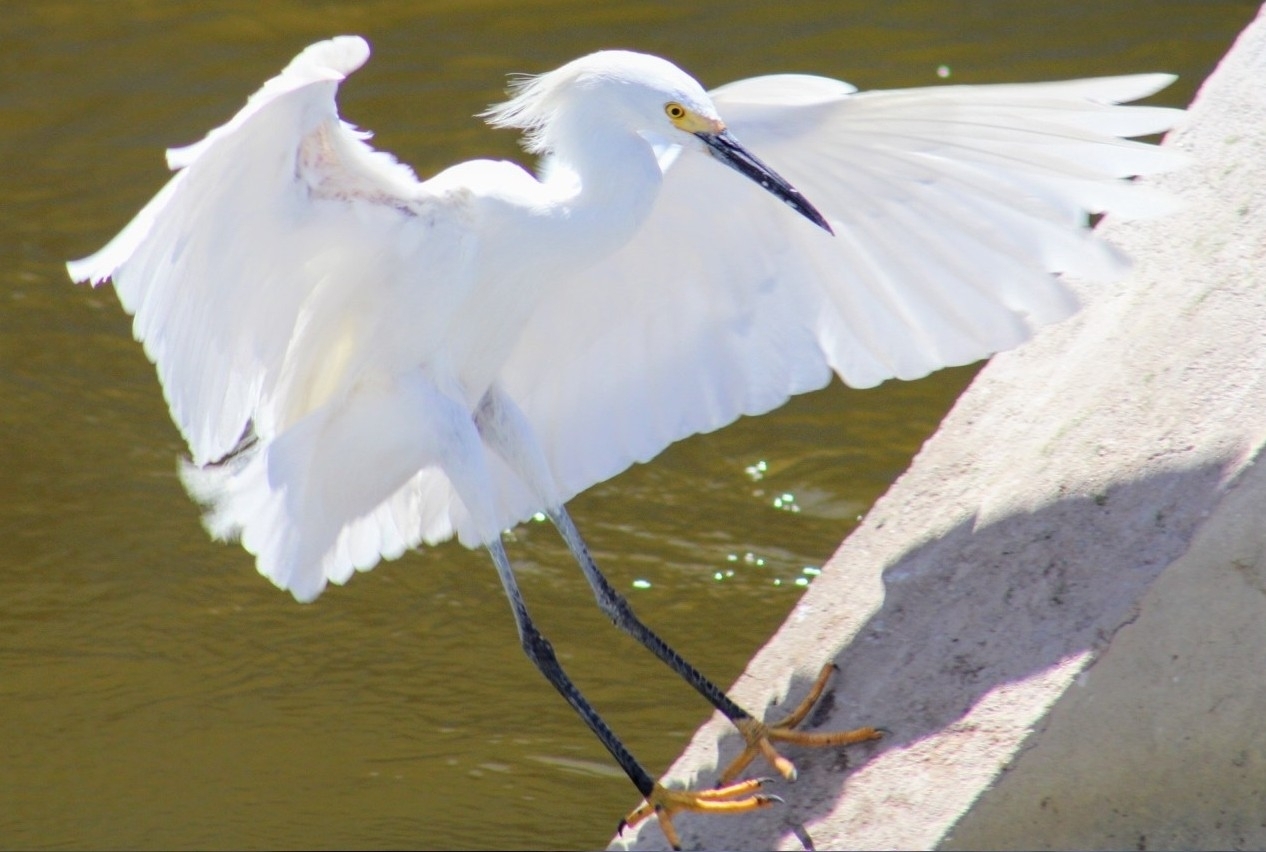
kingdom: Animalia
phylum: Chordata
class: Aves
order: Pelecaniformes
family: Ardeidae
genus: Egretta
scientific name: Egretta thula
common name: Snowy egret
